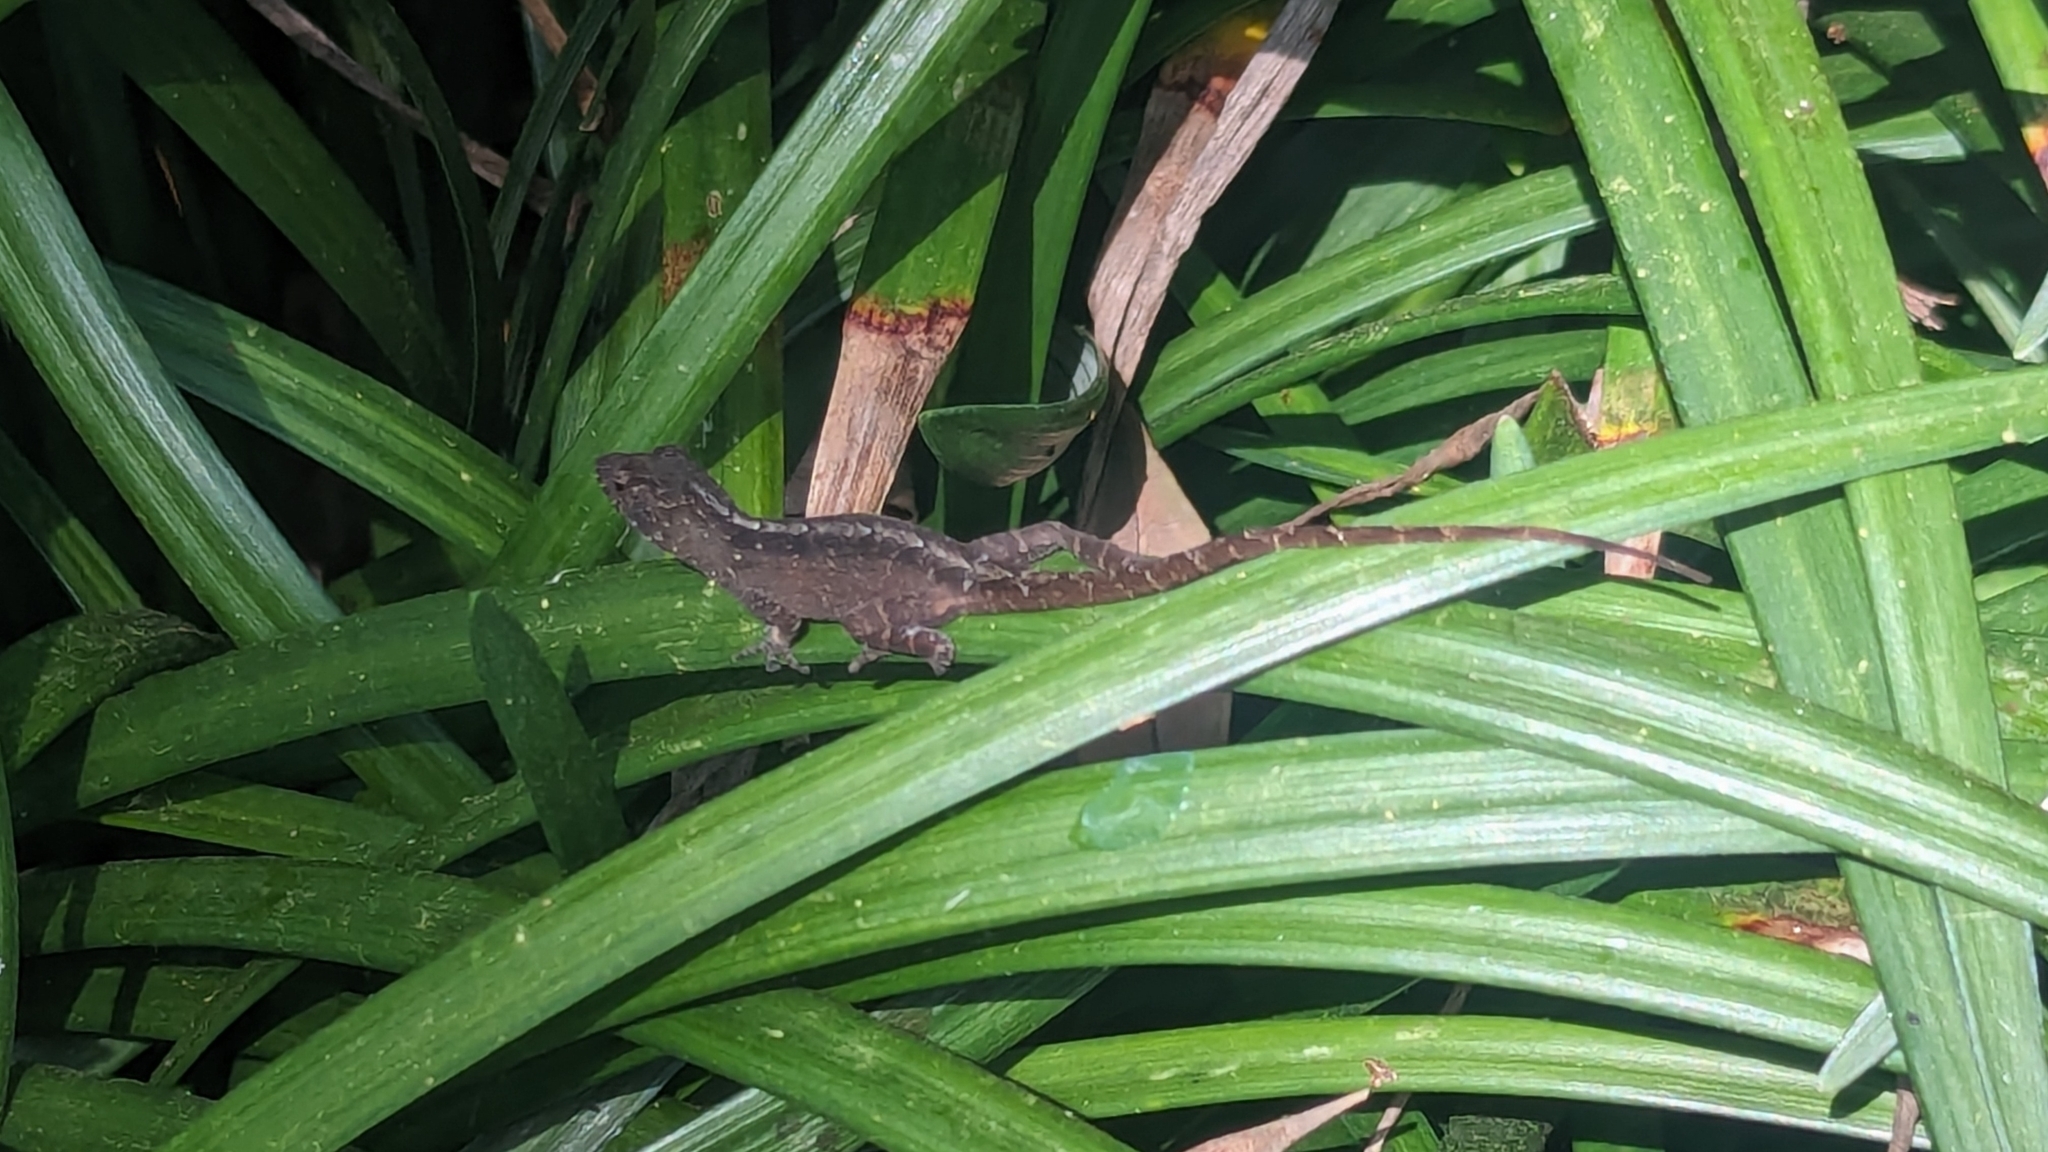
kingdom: Animalia
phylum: Chordata
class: Squamata
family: Dactyloidae
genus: Anolis
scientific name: Anolis sagrei
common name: Brown anole
